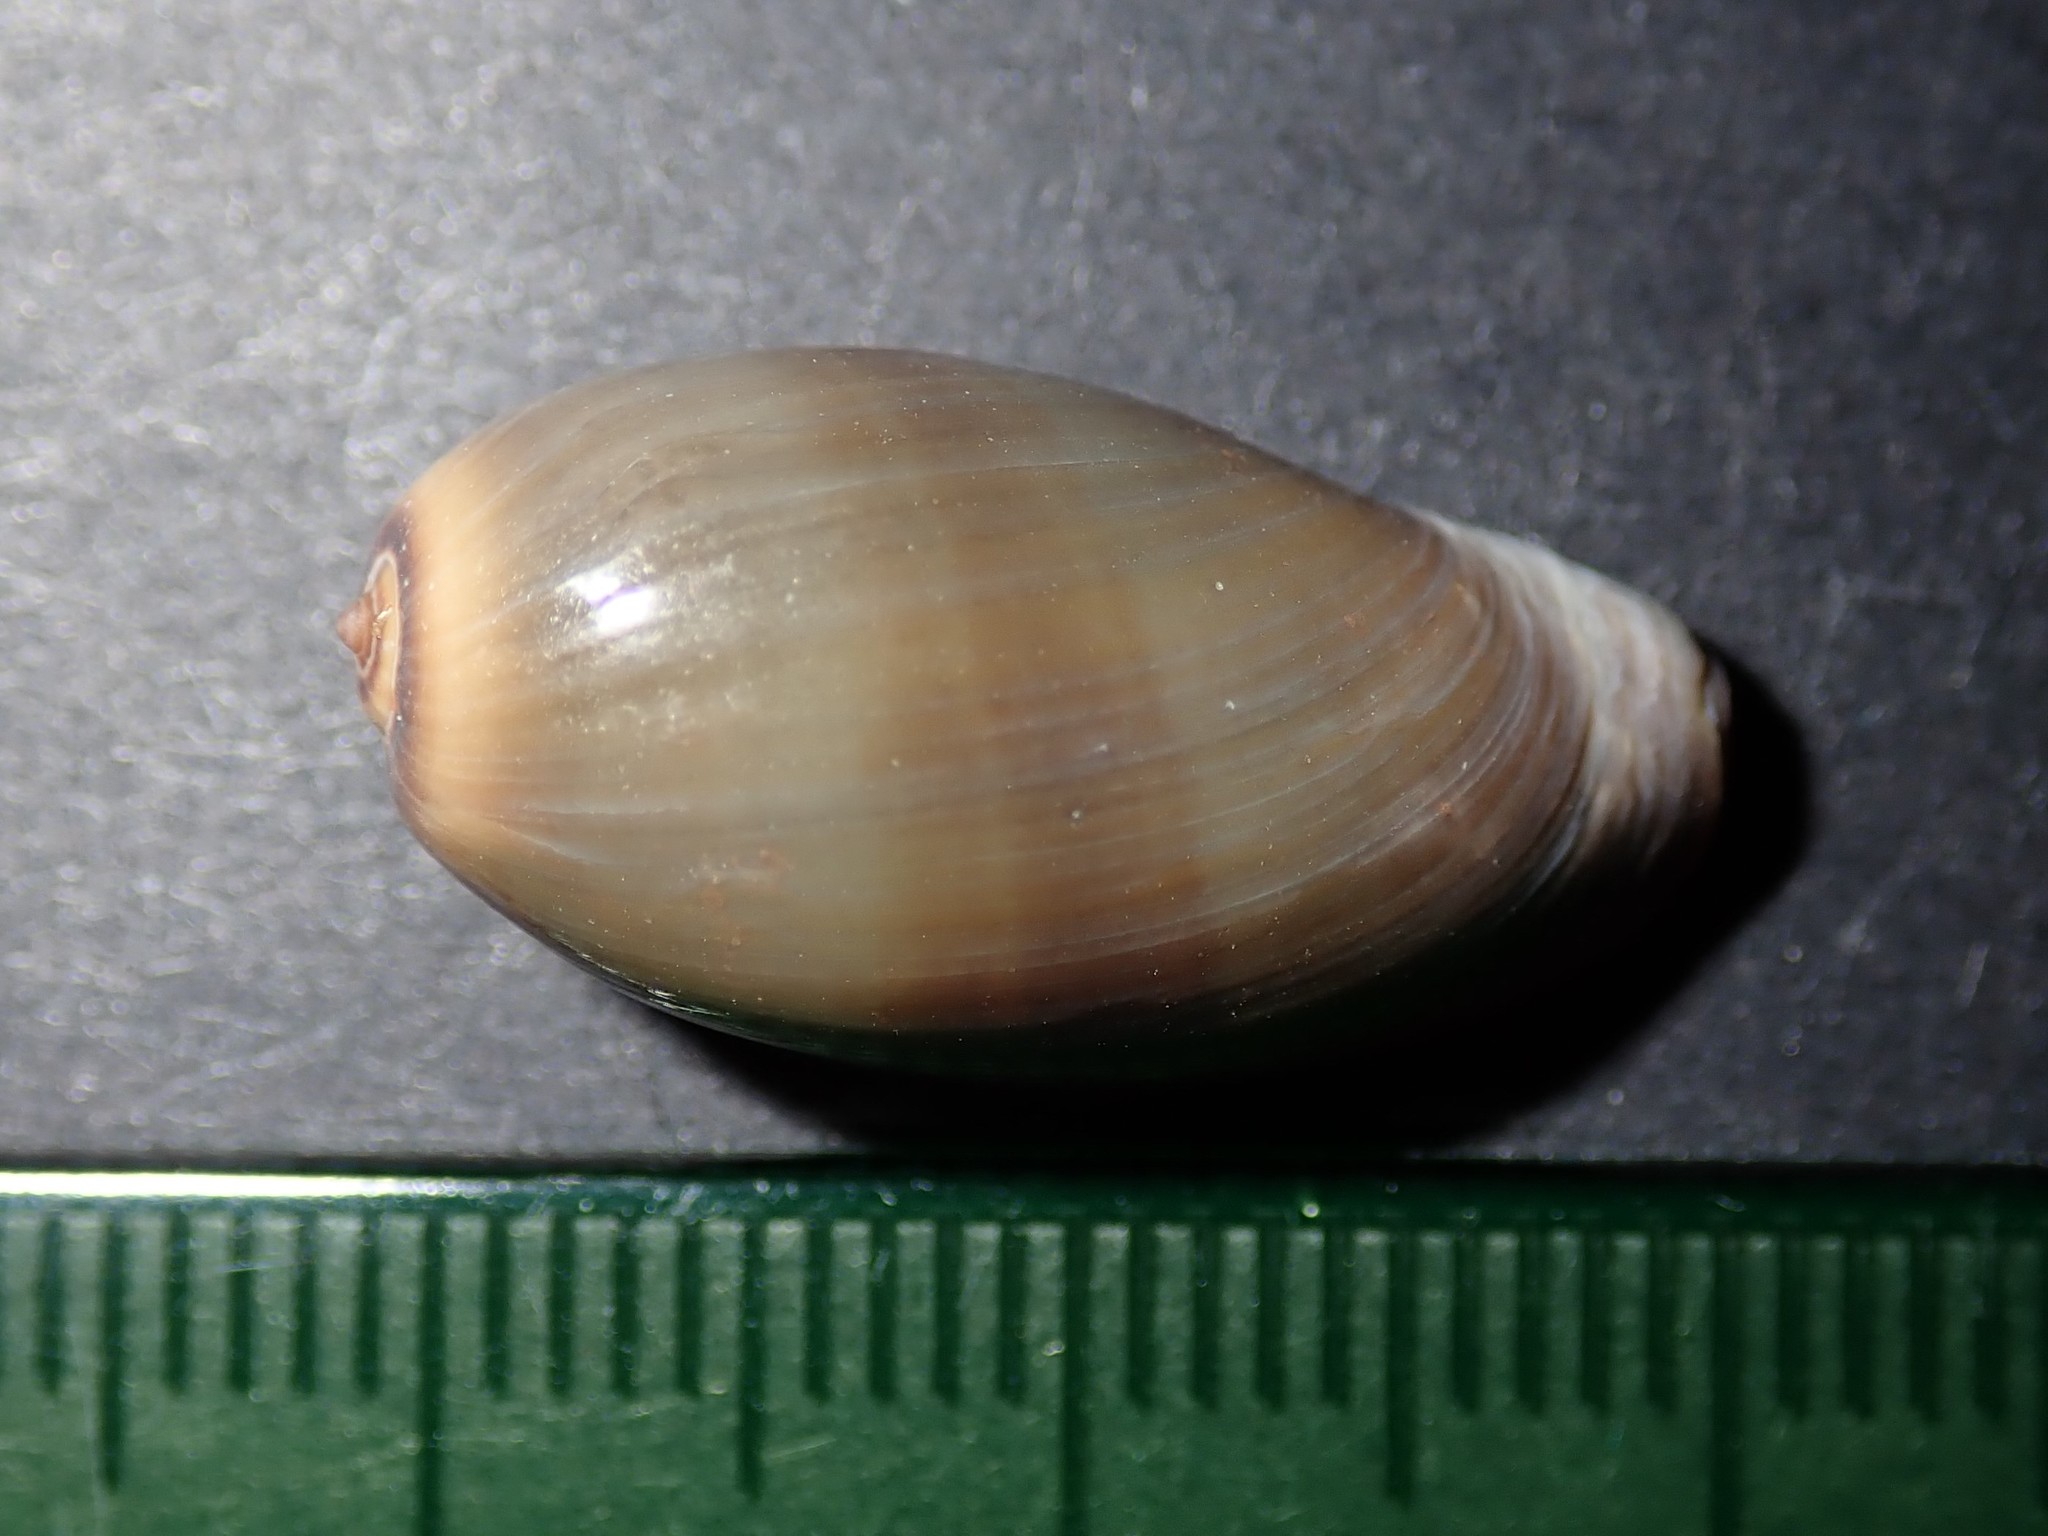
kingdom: Animalia
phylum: Mollusca
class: Gastropoda
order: Littorinimorpha
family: Cypraeidae
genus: Monetaria
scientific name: Monetaria caputserpentis
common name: Serpent's head cowrie
